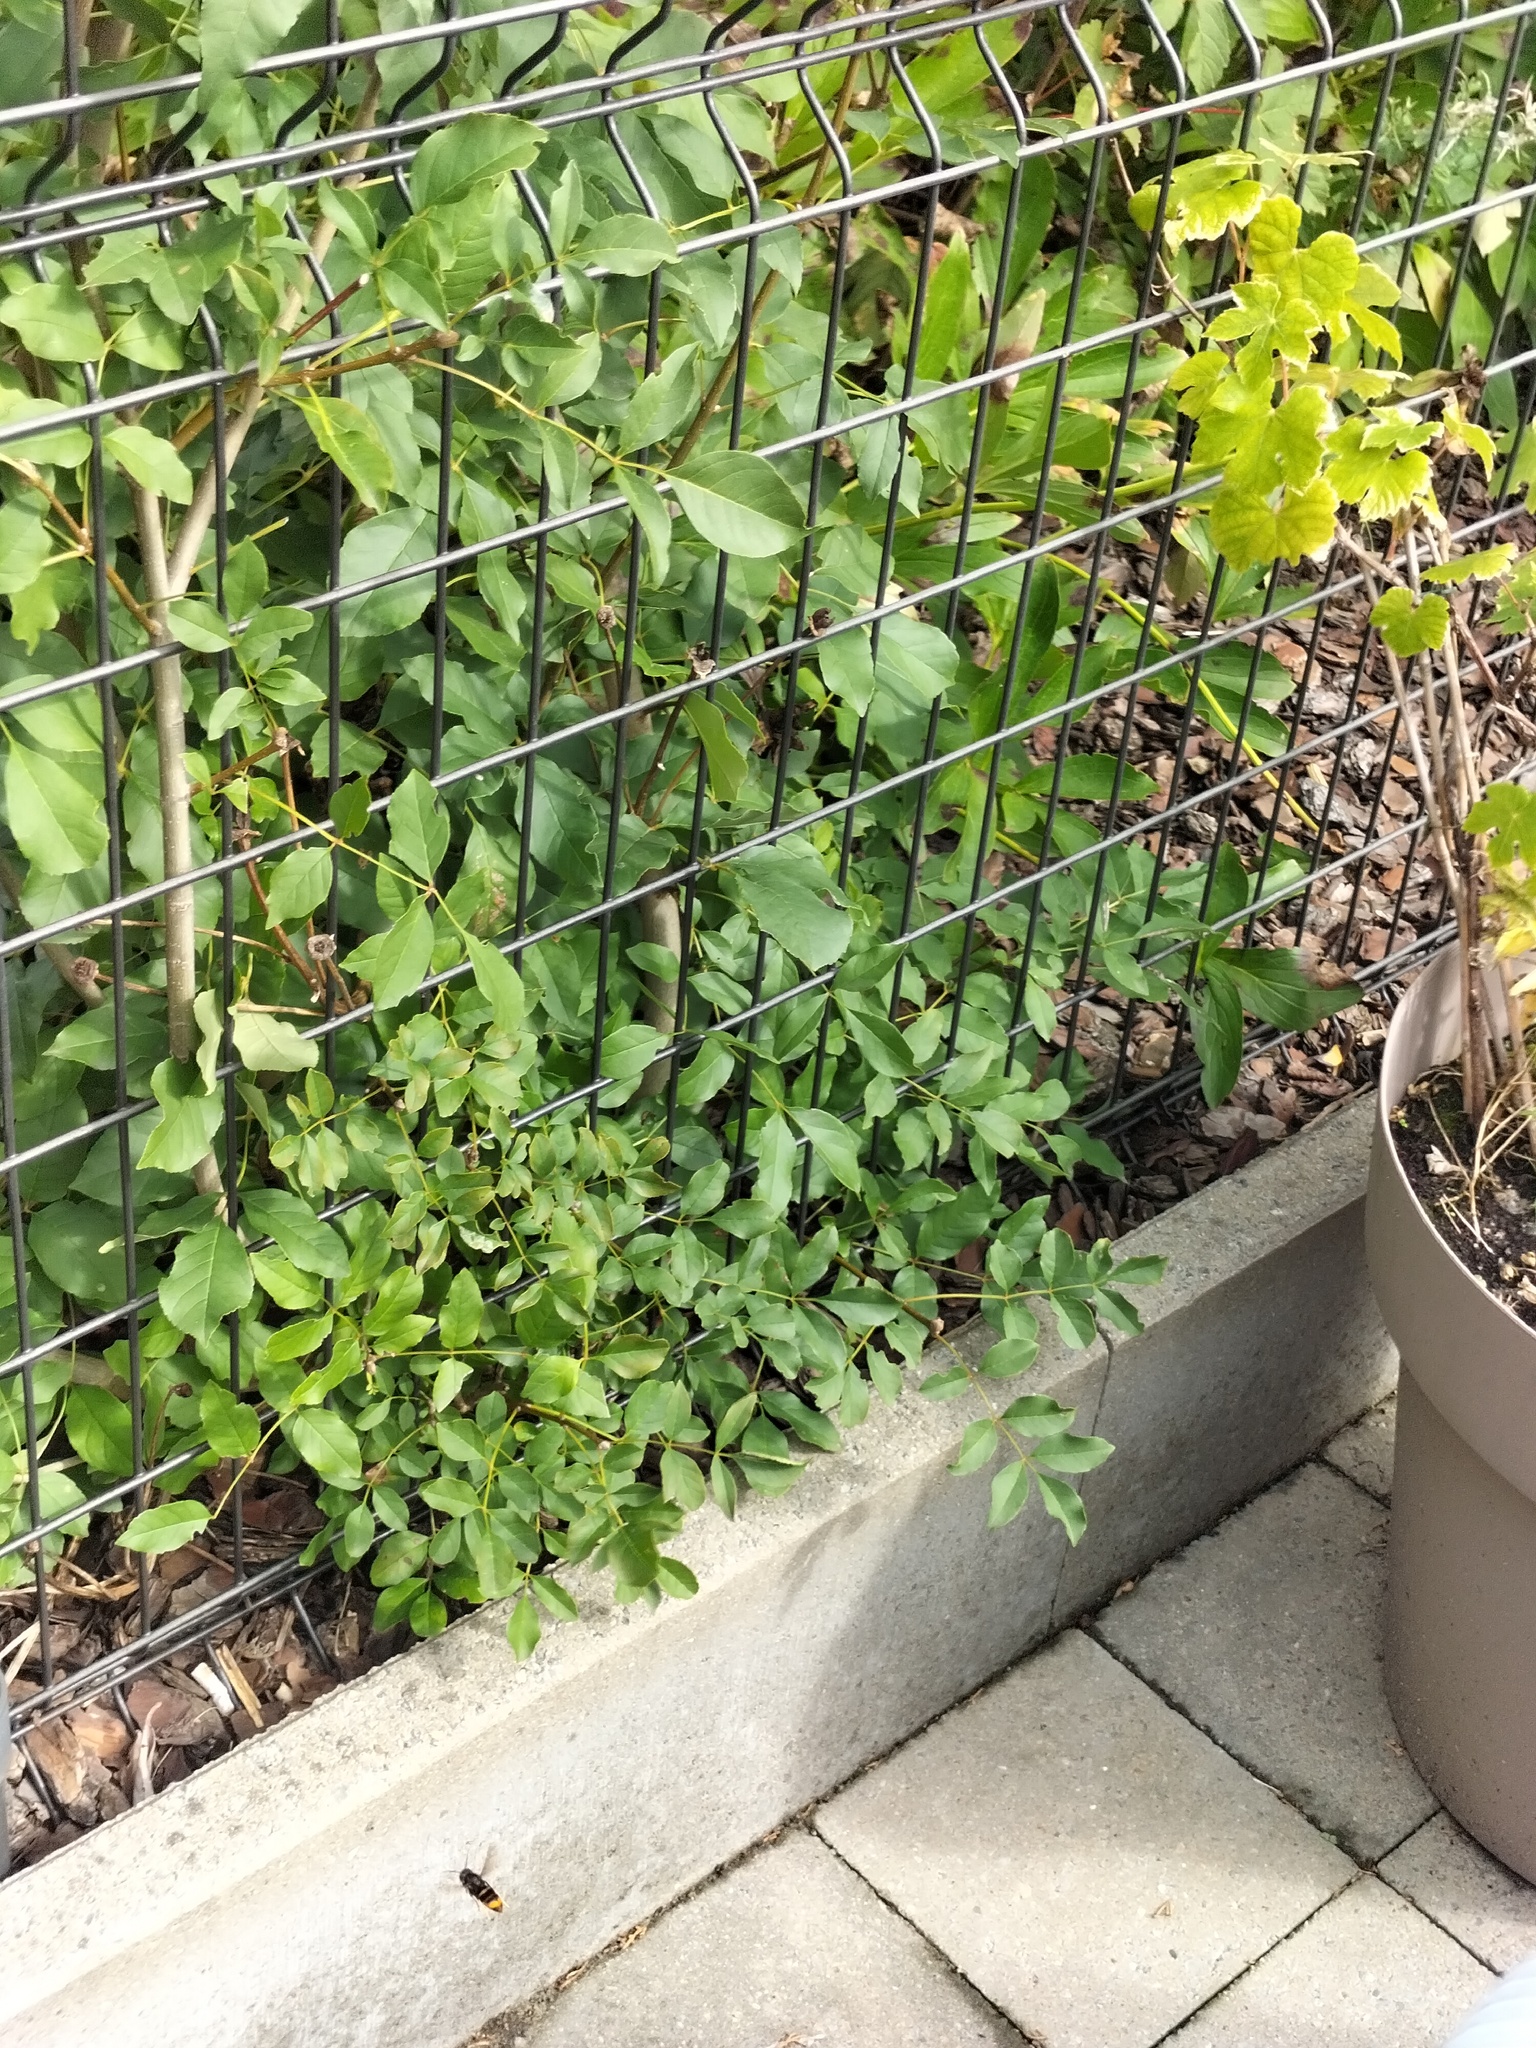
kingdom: Animalia
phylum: Arthropoda
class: Insecta
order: Hymenoptera
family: Vespidae
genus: Vespa
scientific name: Vespa velutina
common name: Asian hornet
